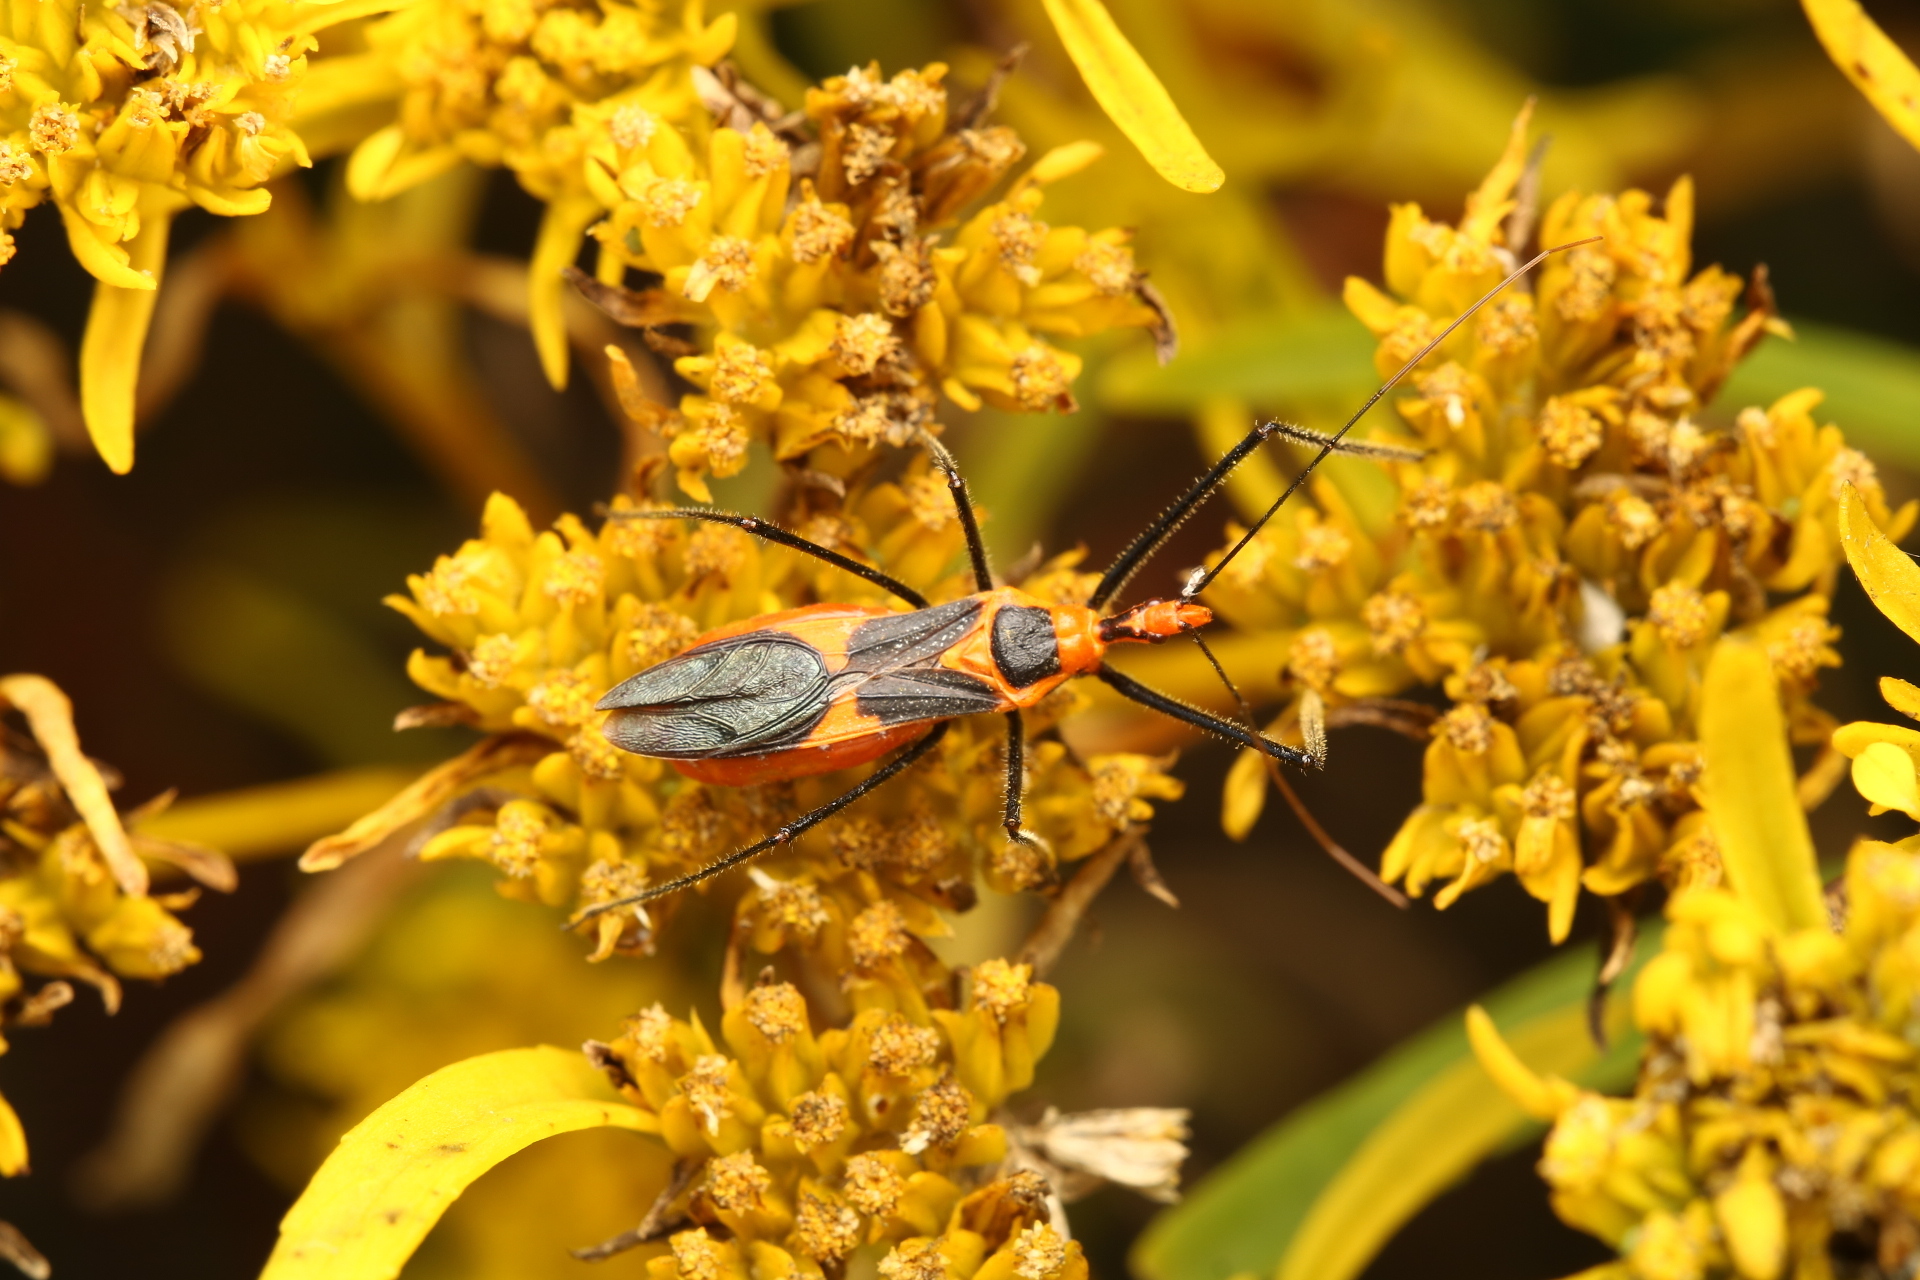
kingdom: Animalia
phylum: Arthropoda
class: Insecta
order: Hemiptera
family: Reduviidae
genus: Zelus
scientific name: Zelus longipes
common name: Milkweed assassin bug
